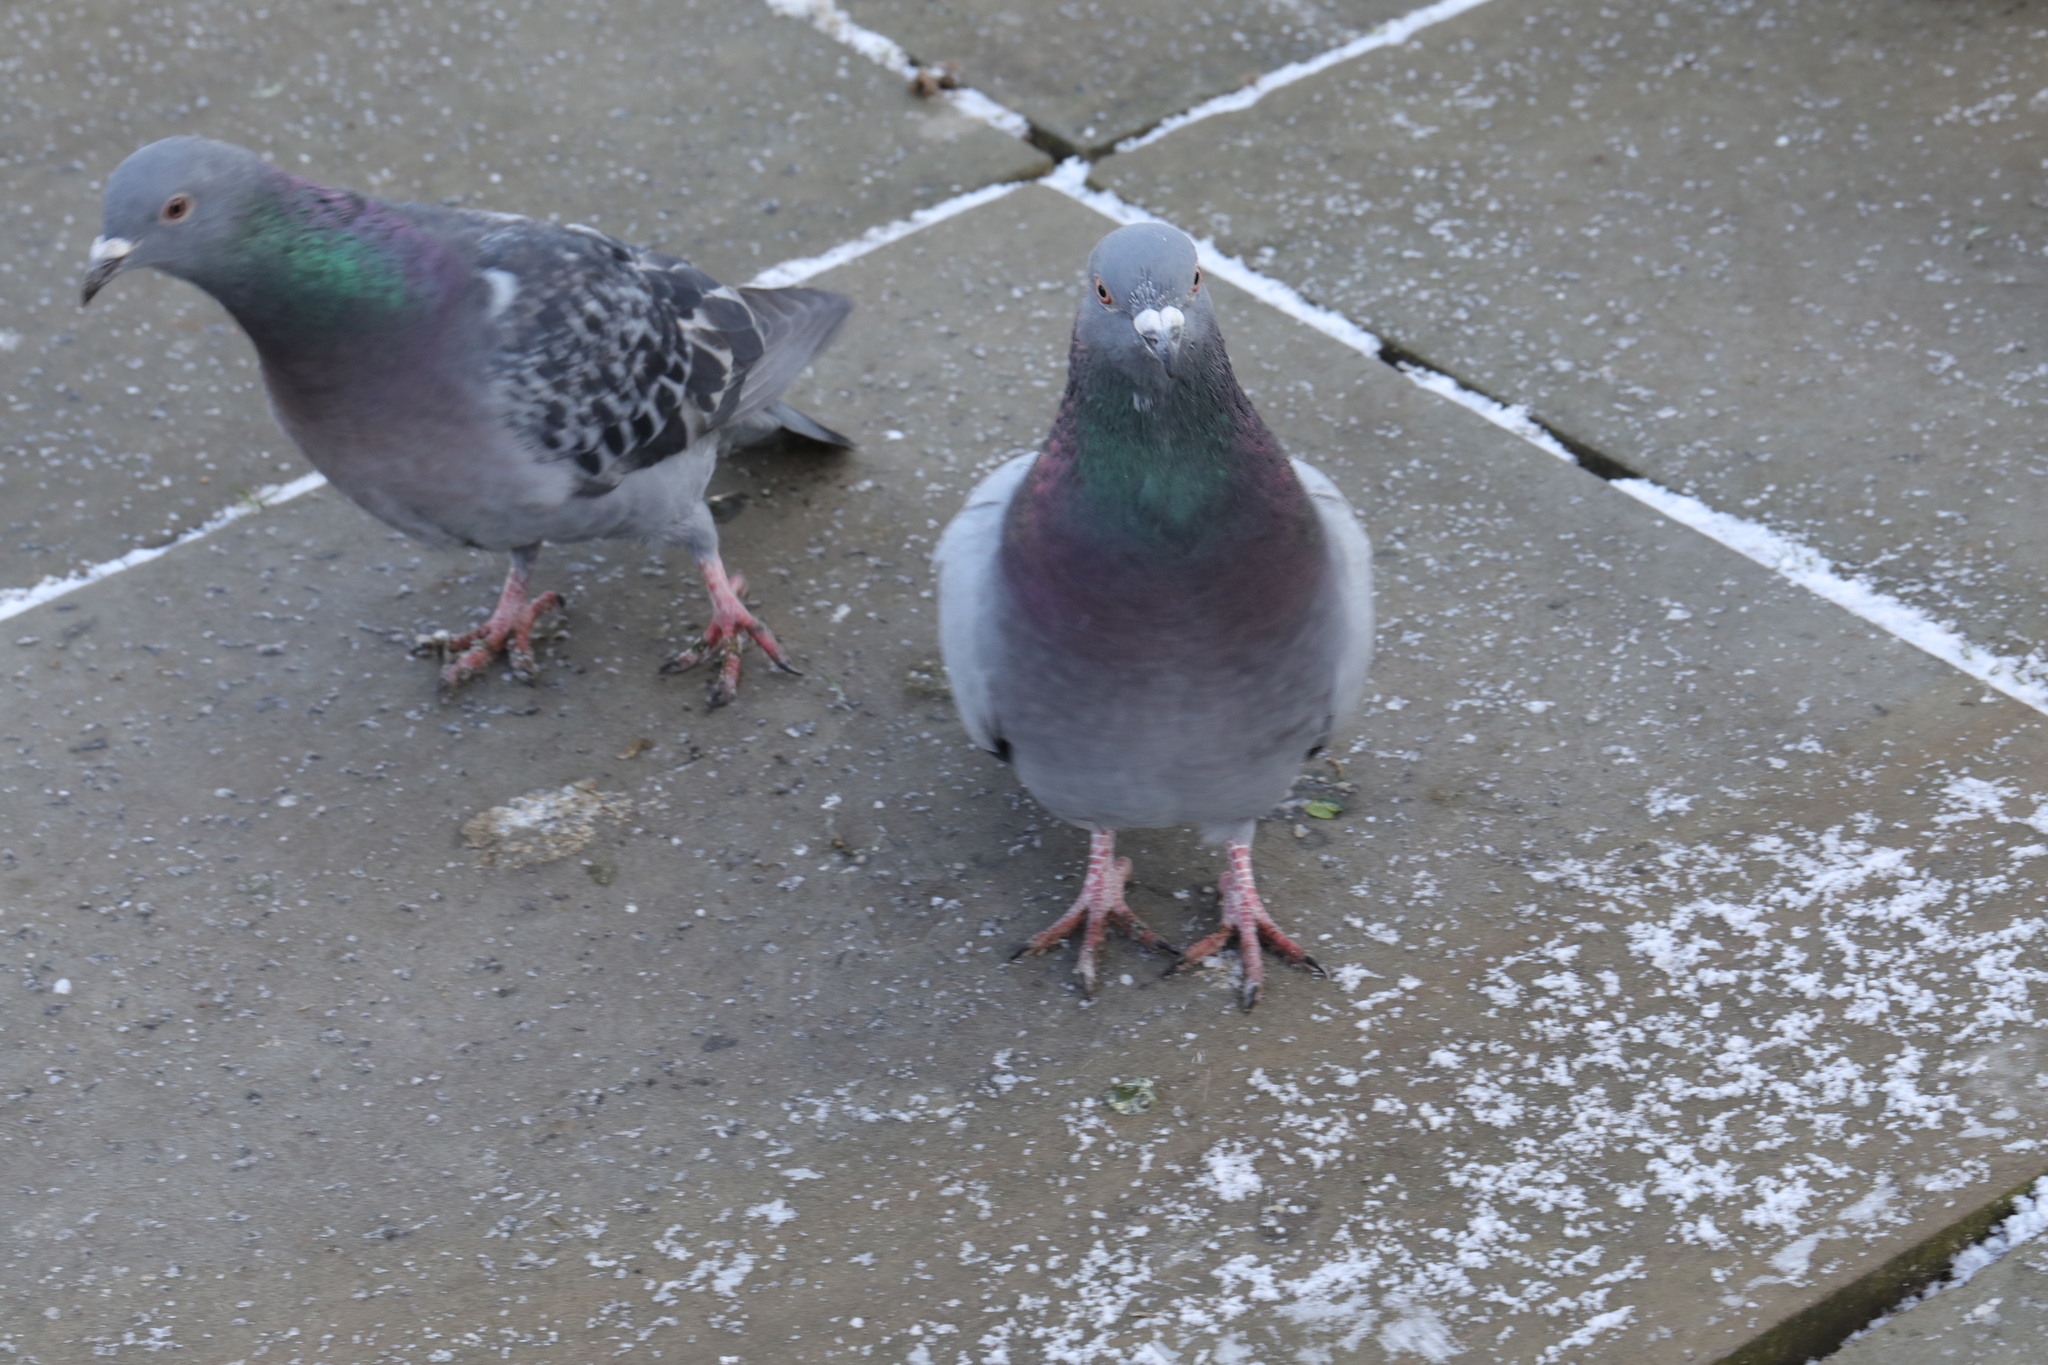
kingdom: Animalia
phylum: Chordata
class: Aves
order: Columbiformes
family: Columbidae
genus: Columba
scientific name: Columba livia
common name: Rock pigeon
